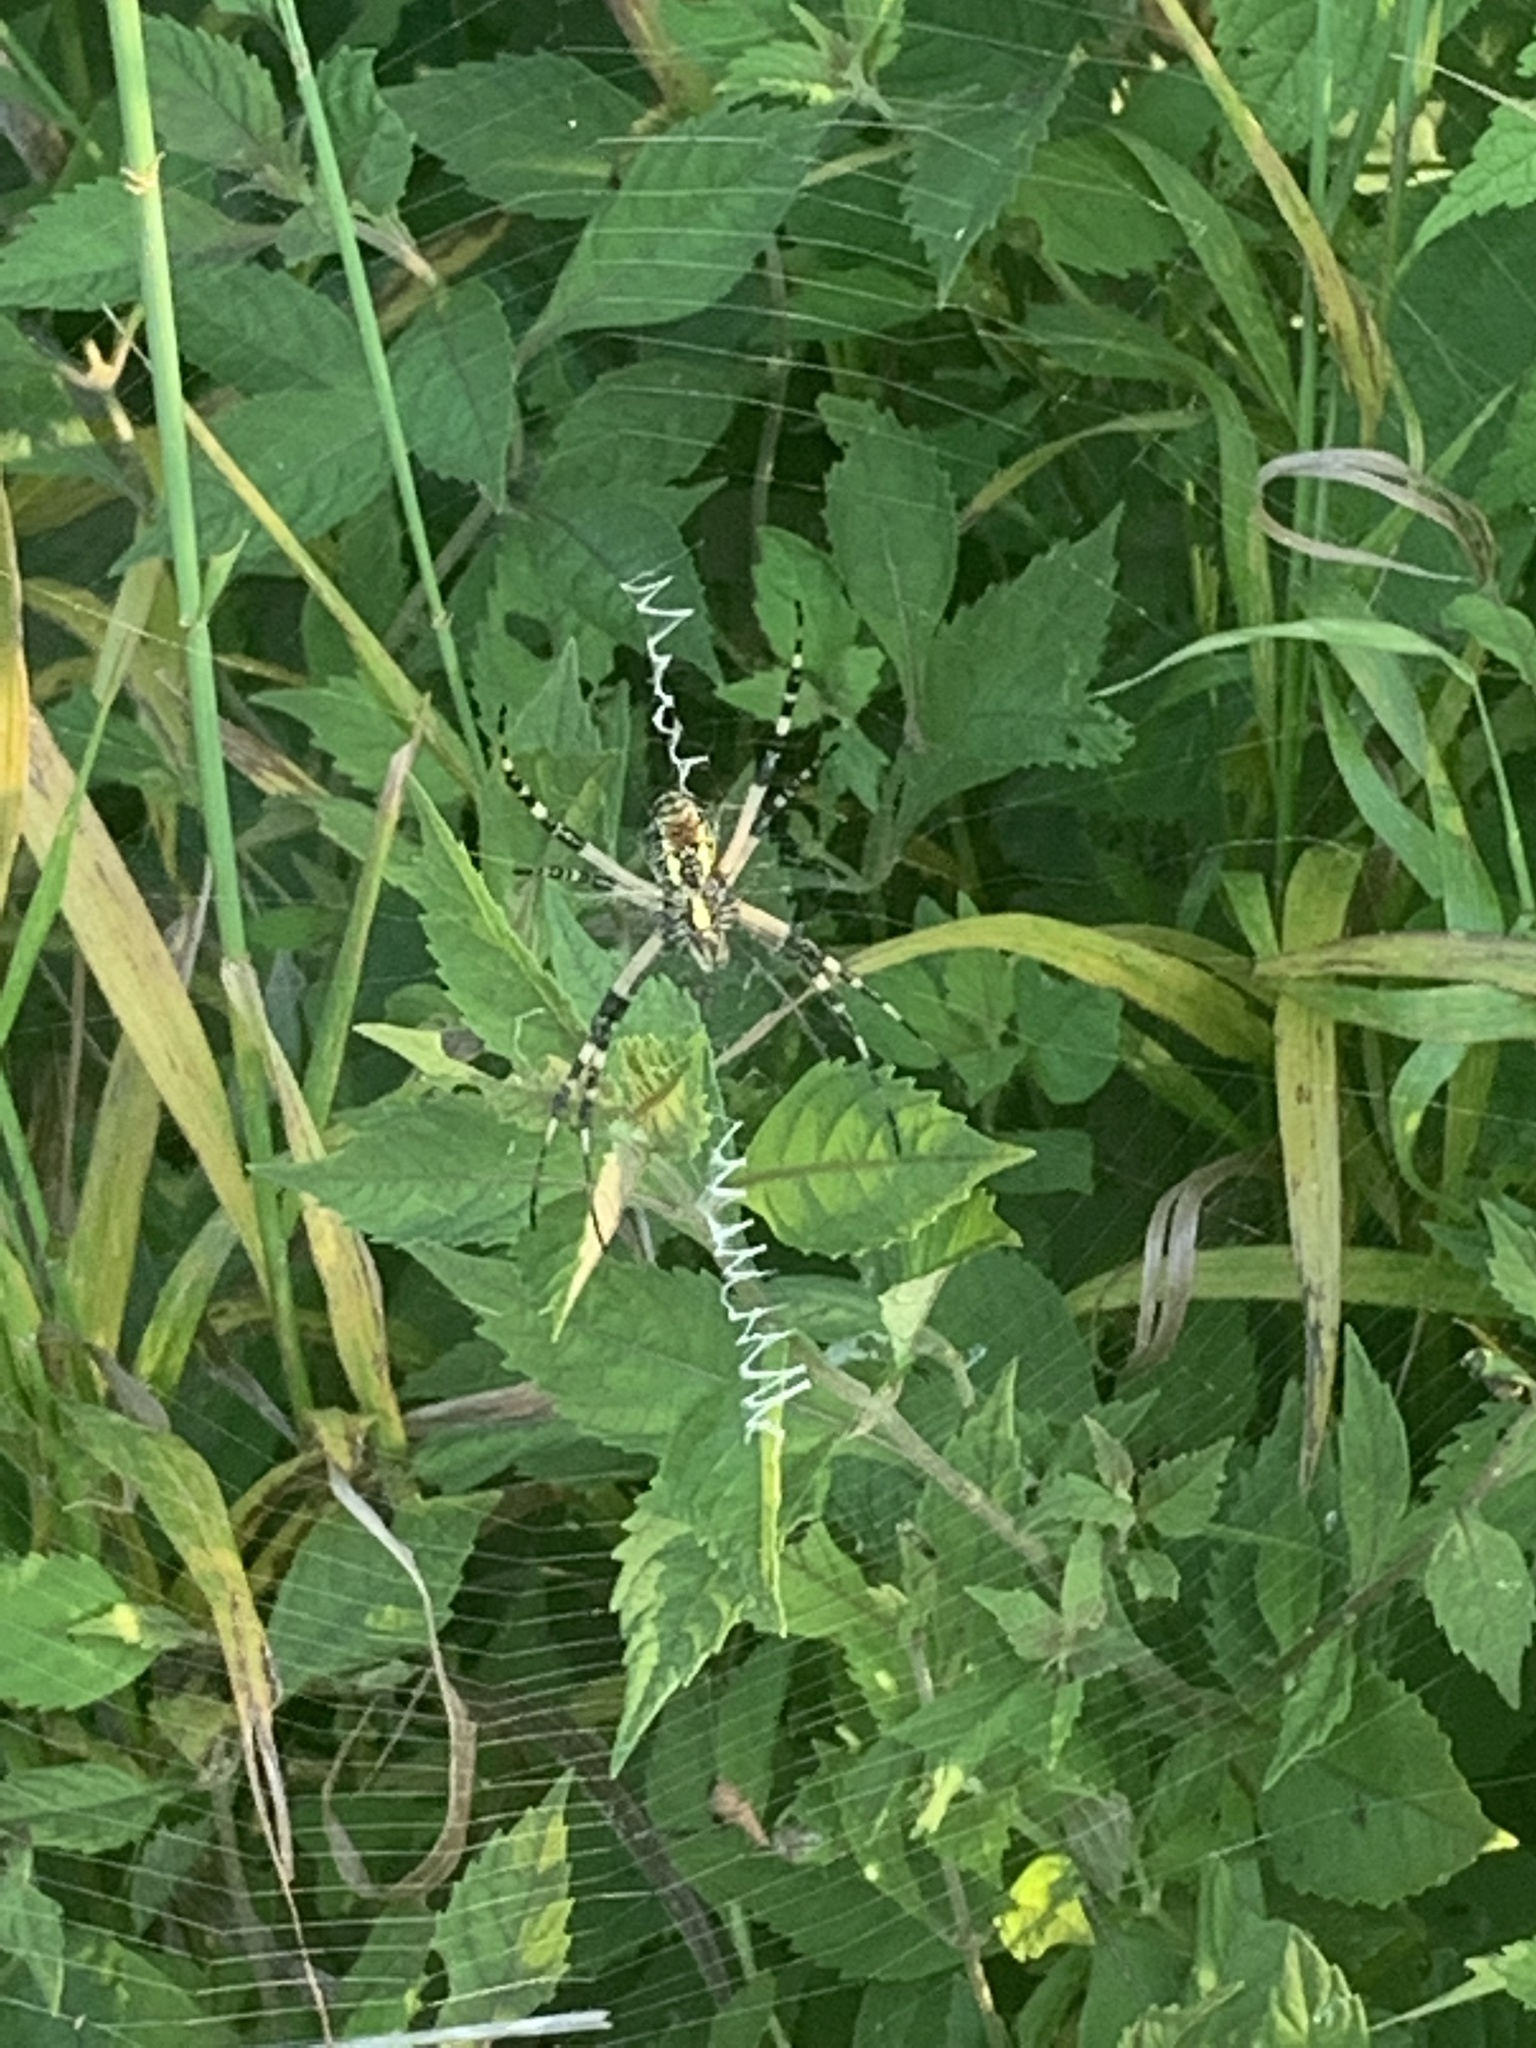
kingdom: Animalia
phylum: Arthropoda
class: Arachnida
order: Araneae
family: Araneidae
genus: Argiope
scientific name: Argiope aurantia
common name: Orb weavers
